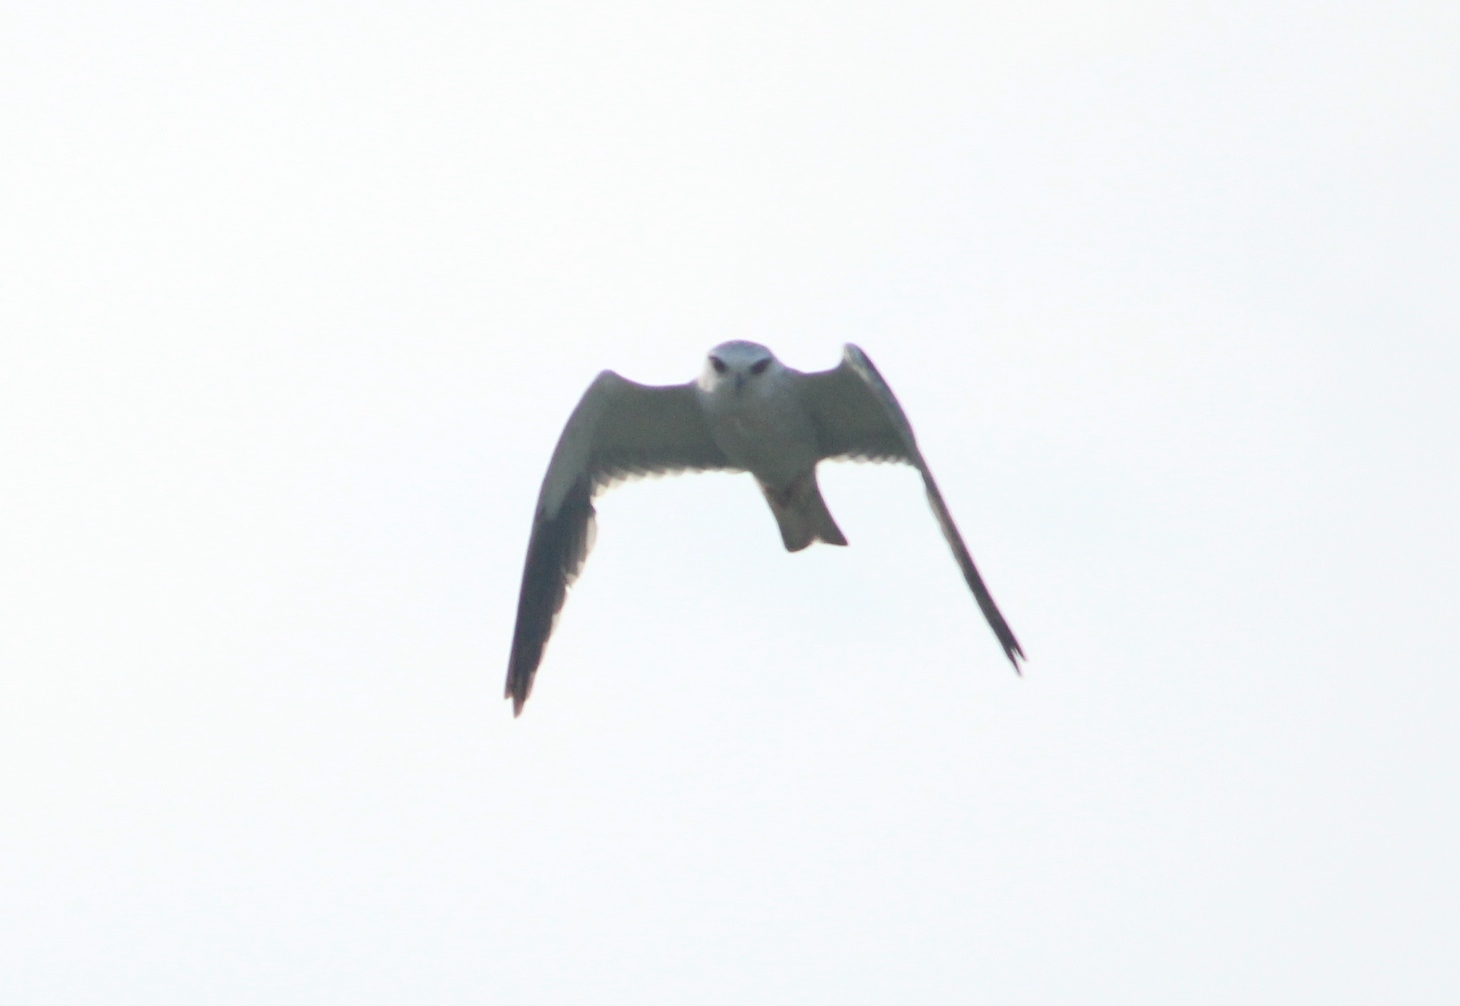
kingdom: Animalia
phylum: Chordata
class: Aves
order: Accipitriformes
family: Accipitridae
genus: Elanus
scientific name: Elanus caeruleus
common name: Black-winged kite
